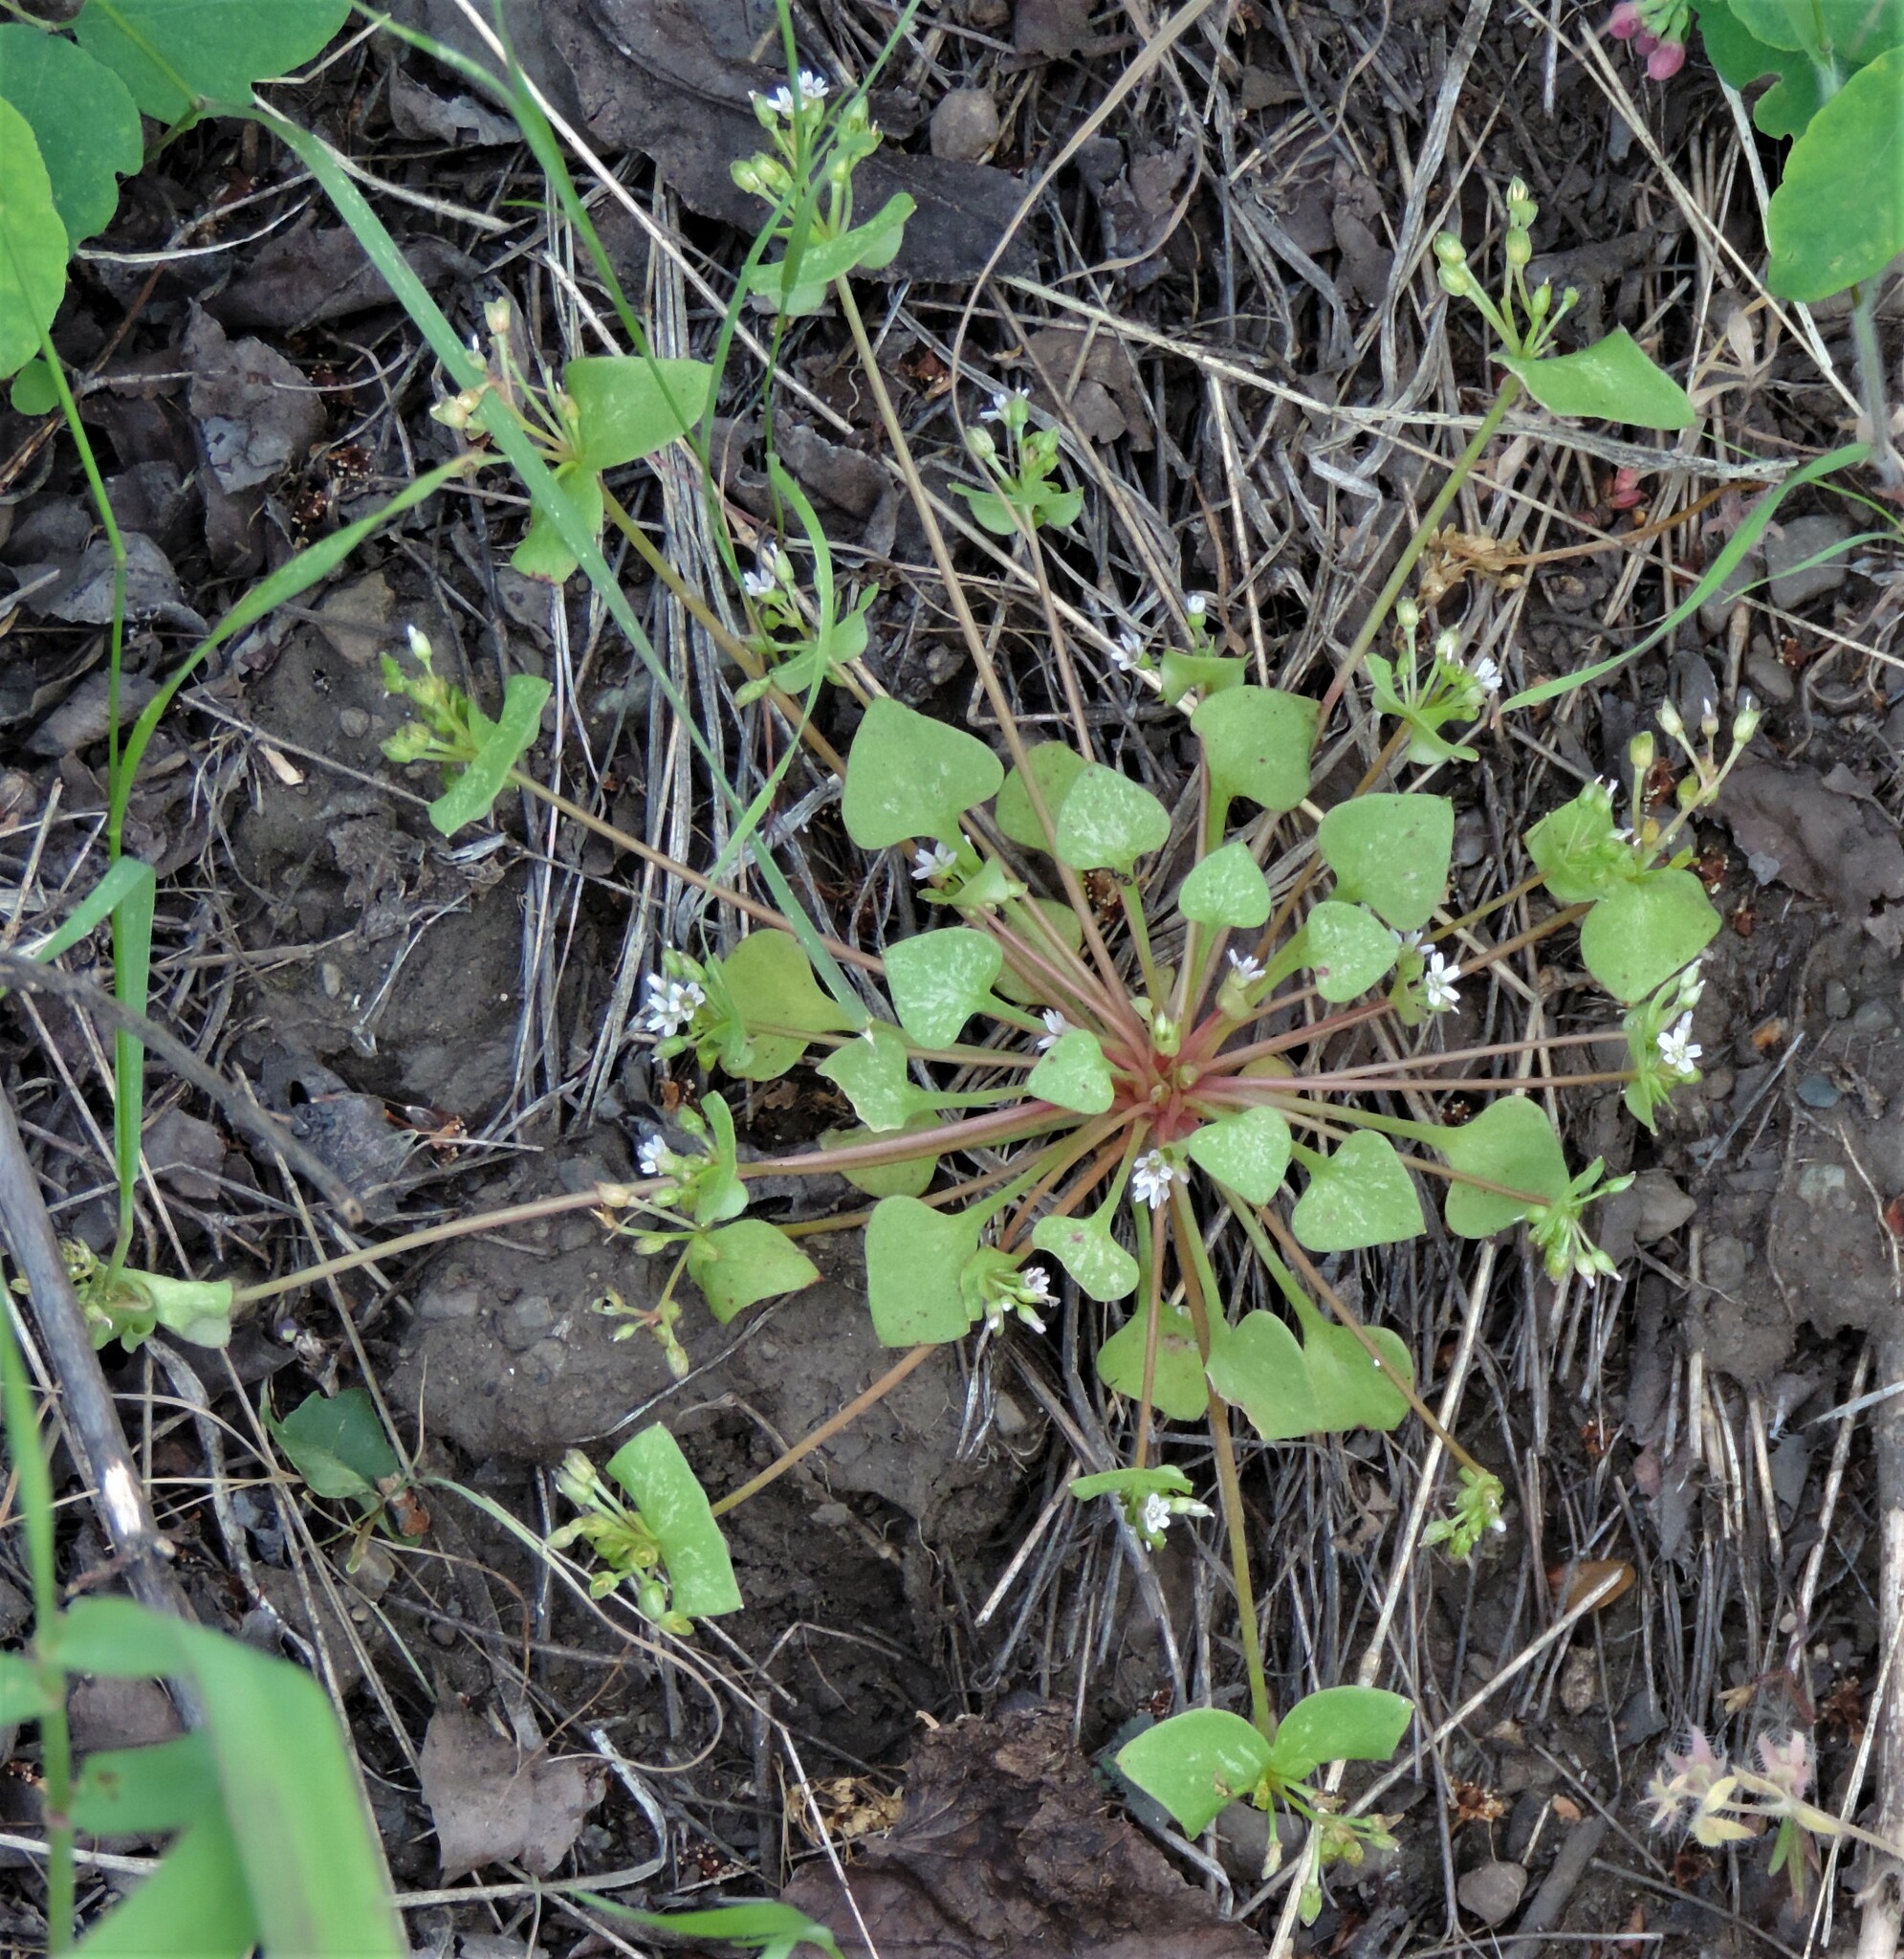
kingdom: Plantae
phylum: Tracheophyta
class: Magnoliopsida
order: Caryophyllales
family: Montiaceae
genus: Claytonia
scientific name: Claytonia rubra
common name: Erubescent miner's-lettuce
